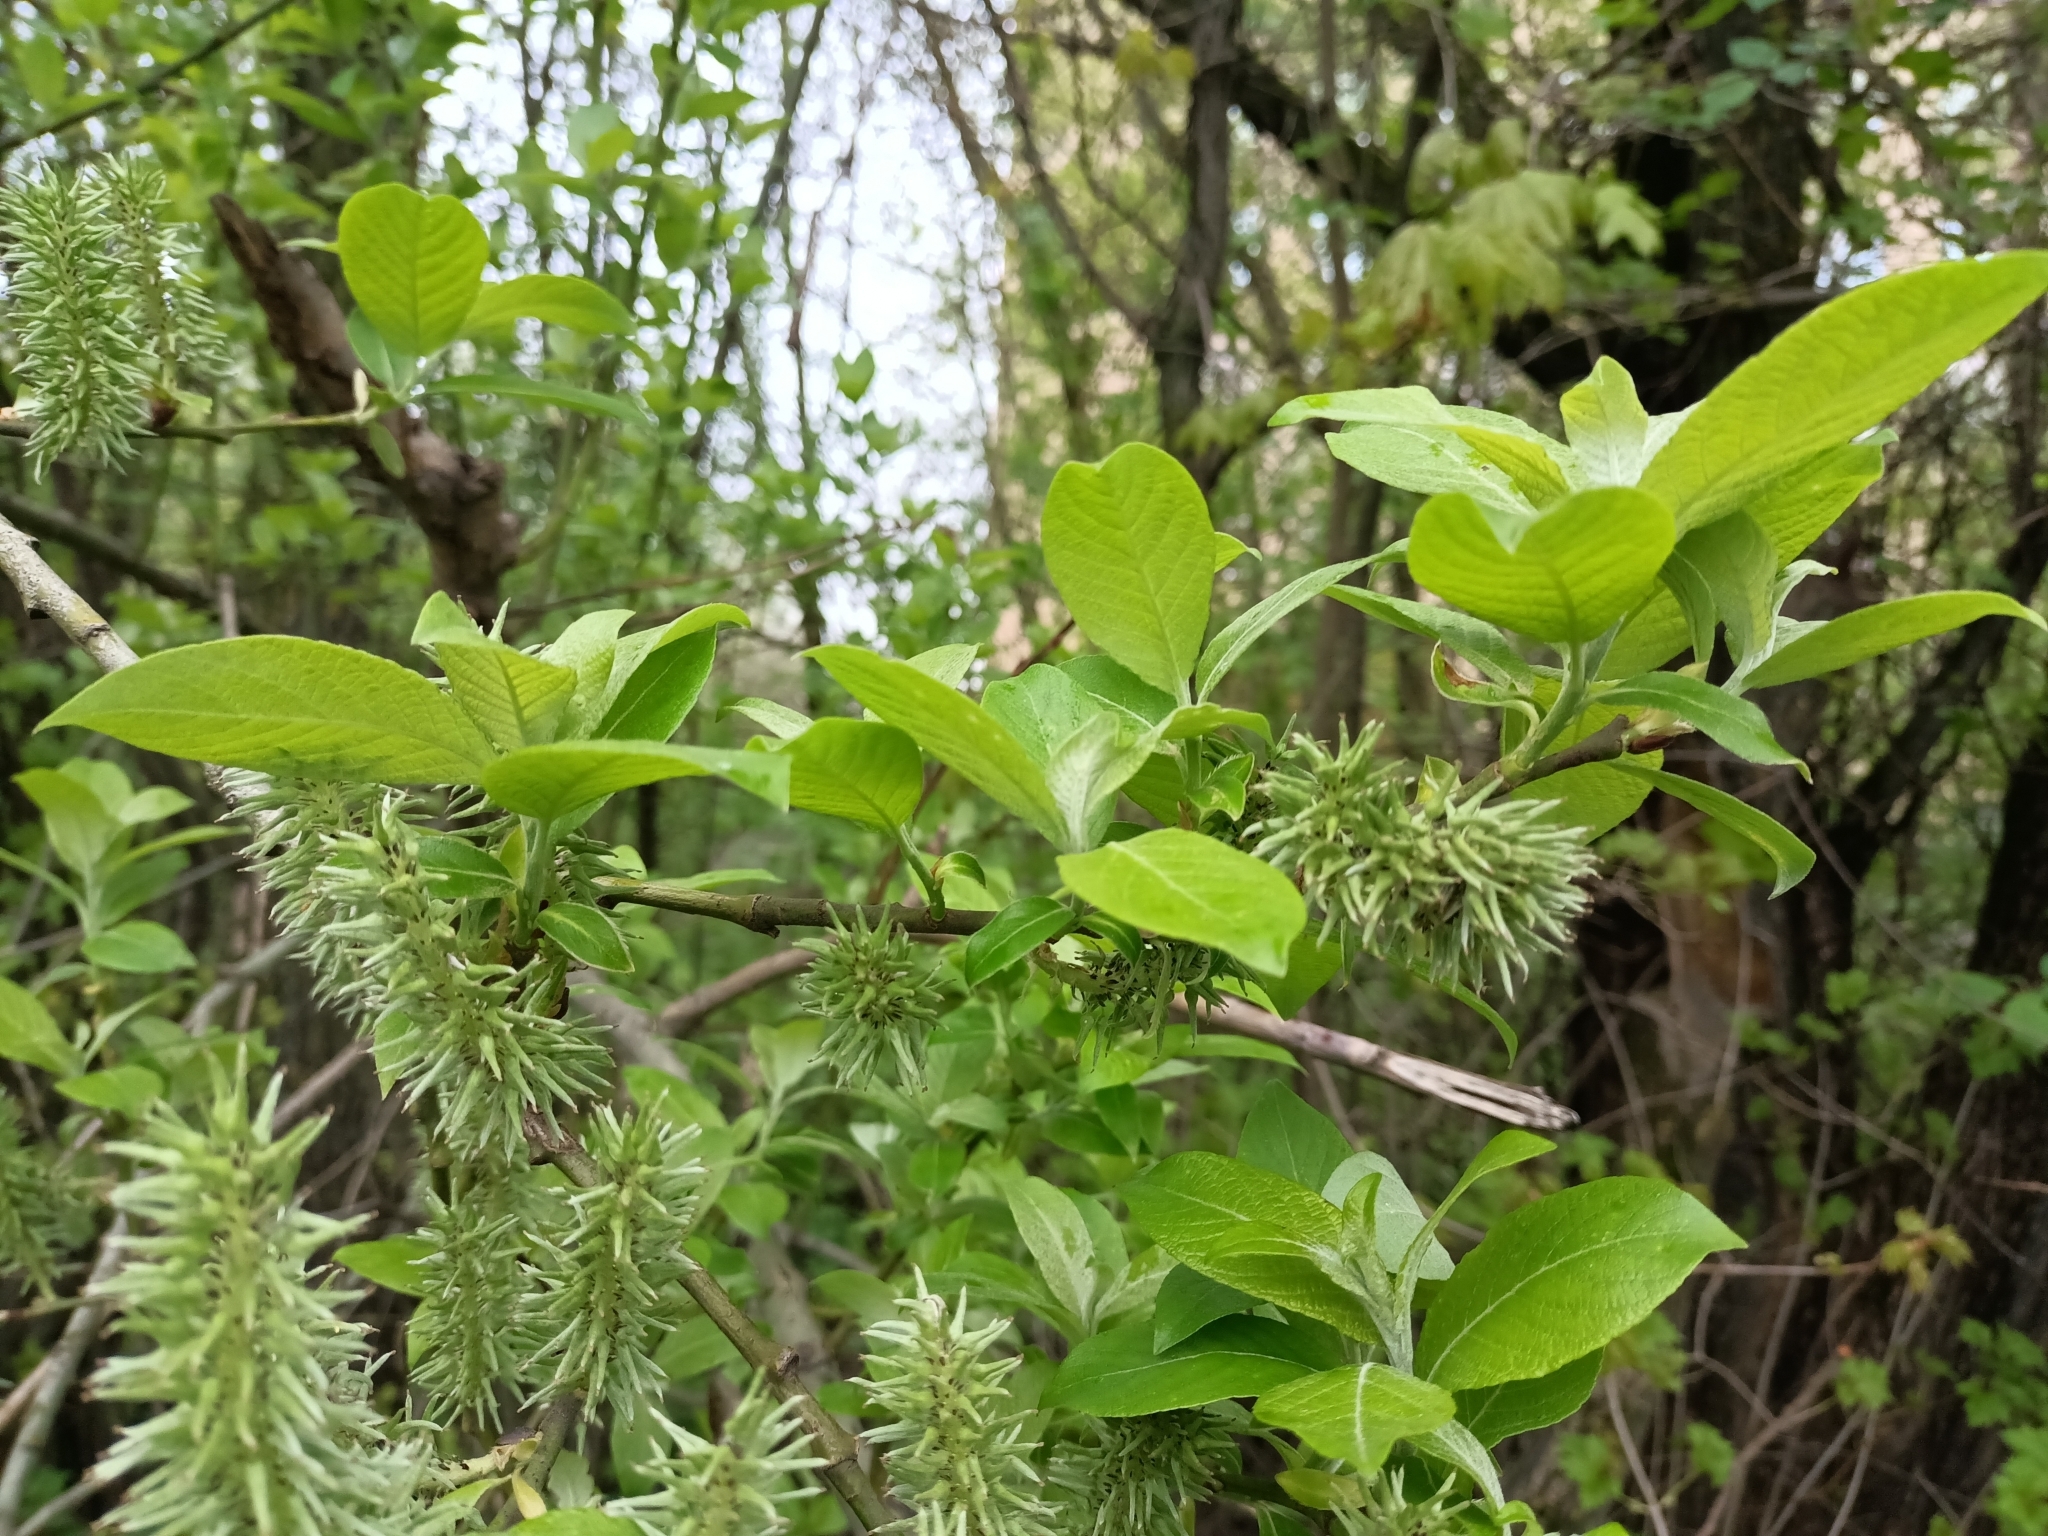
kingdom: Plantae
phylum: Tracheophyta
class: Magnoliopsida
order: Malpighiales
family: Salicaceae
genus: Salix
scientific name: Salix caprea
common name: Goat willow
